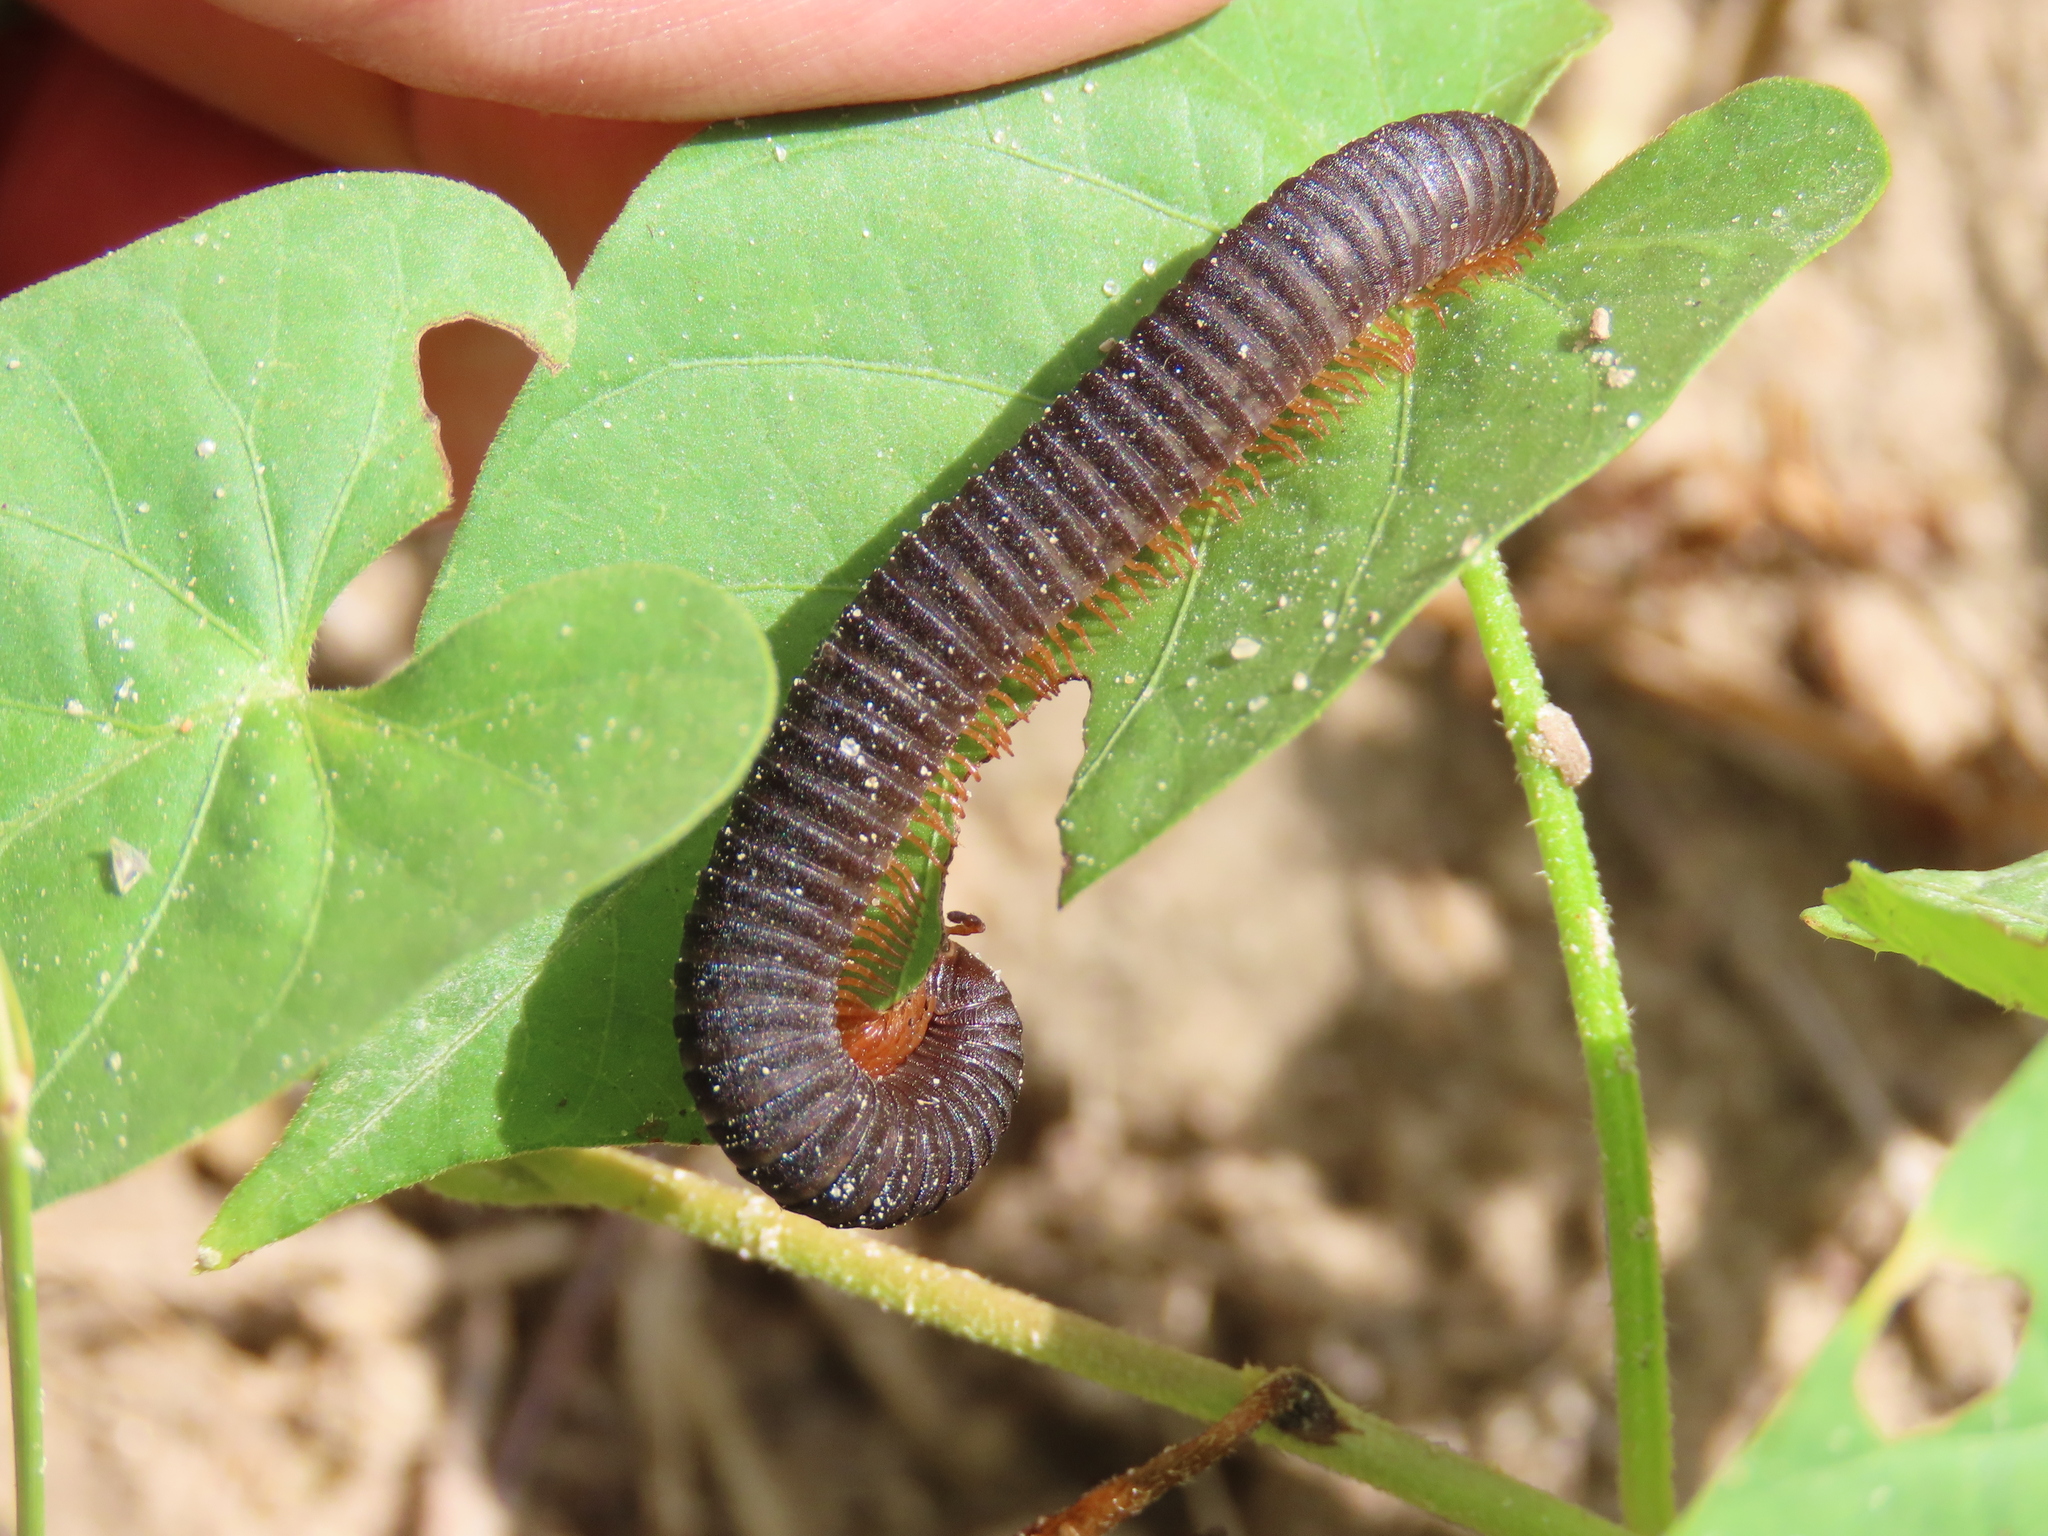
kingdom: Animalia
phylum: Arthropoda
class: Diplopoda
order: Spirostreptida
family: Spirostreptidae
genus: Synophryostreptus
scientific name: Synophryostreptus rugosostriatus
